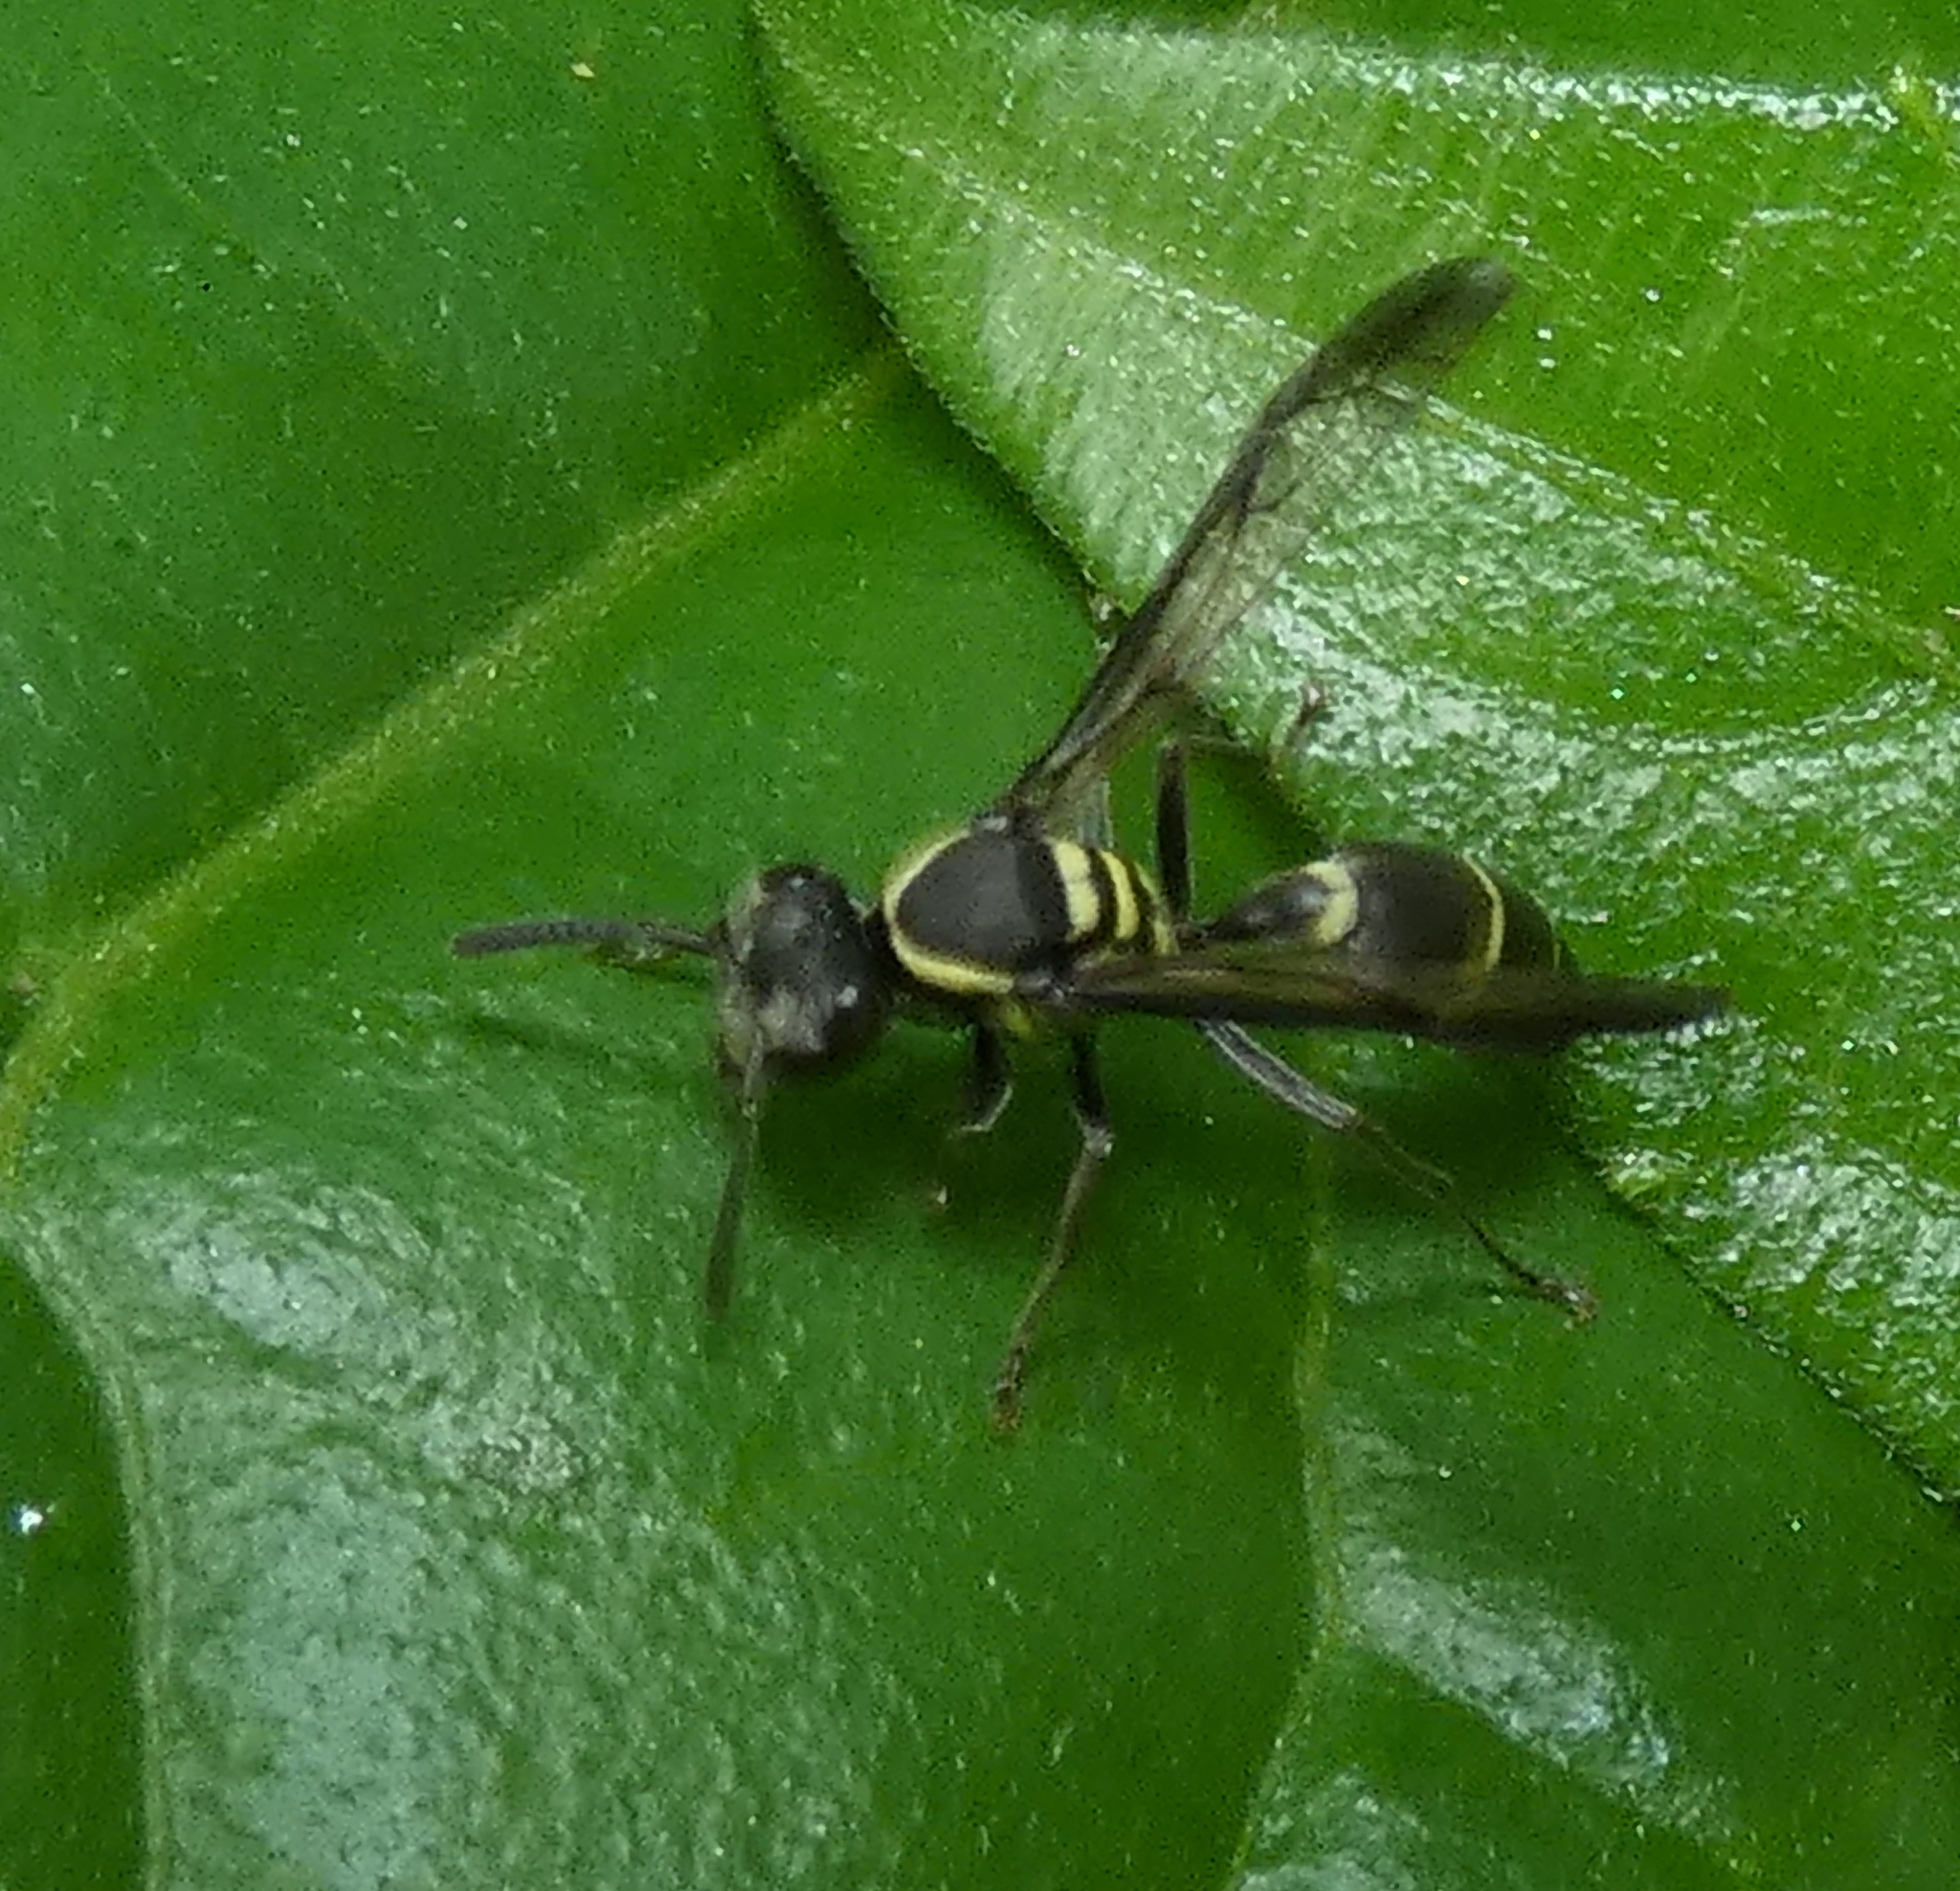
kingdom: Animalia
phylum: Arthropoda
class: Insecta
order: Hymenoptera
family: Eumenidae
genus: Polybia
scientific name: Polybia occidentalis
